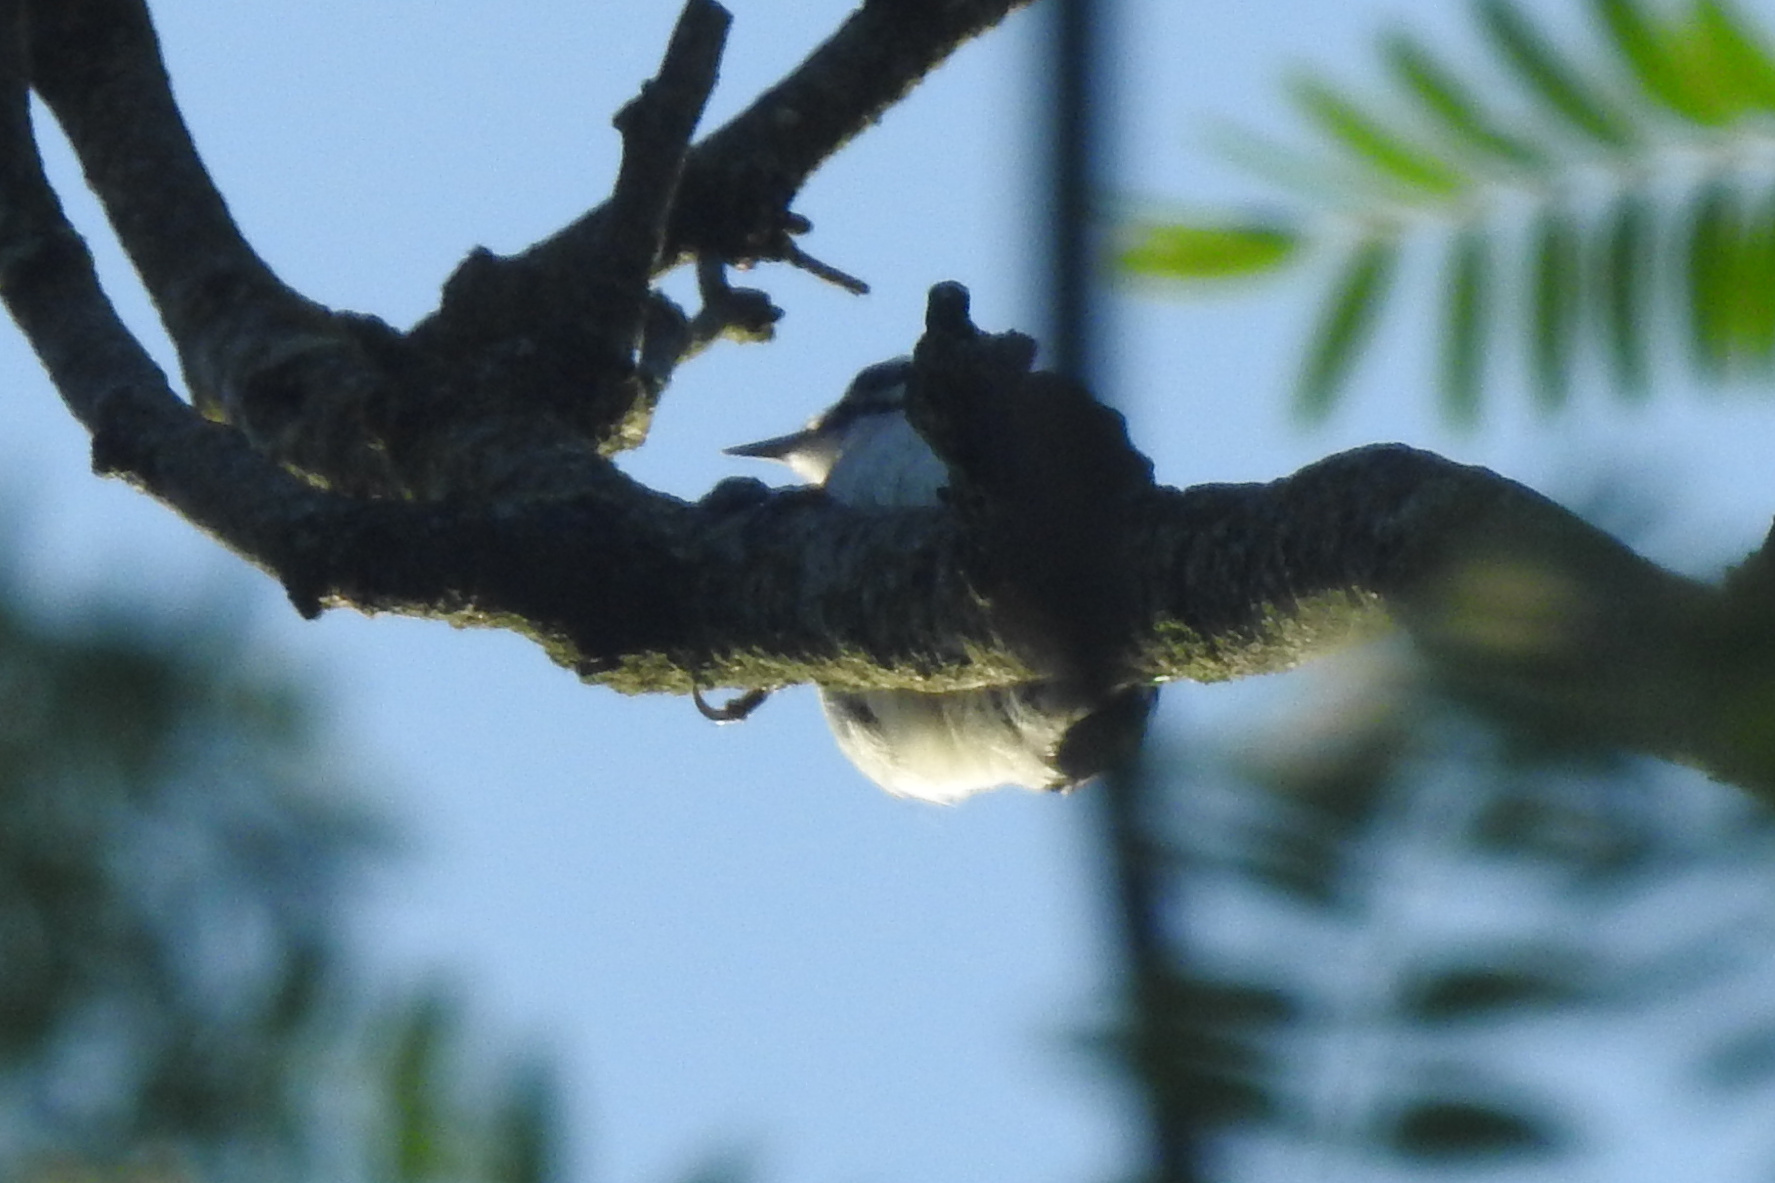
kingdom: Animalia
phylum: Chordata
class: Aves
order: Piciformes
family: Picidae
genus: Dryobates
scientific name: Dryobates pubescens
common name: Downy woodpecker
